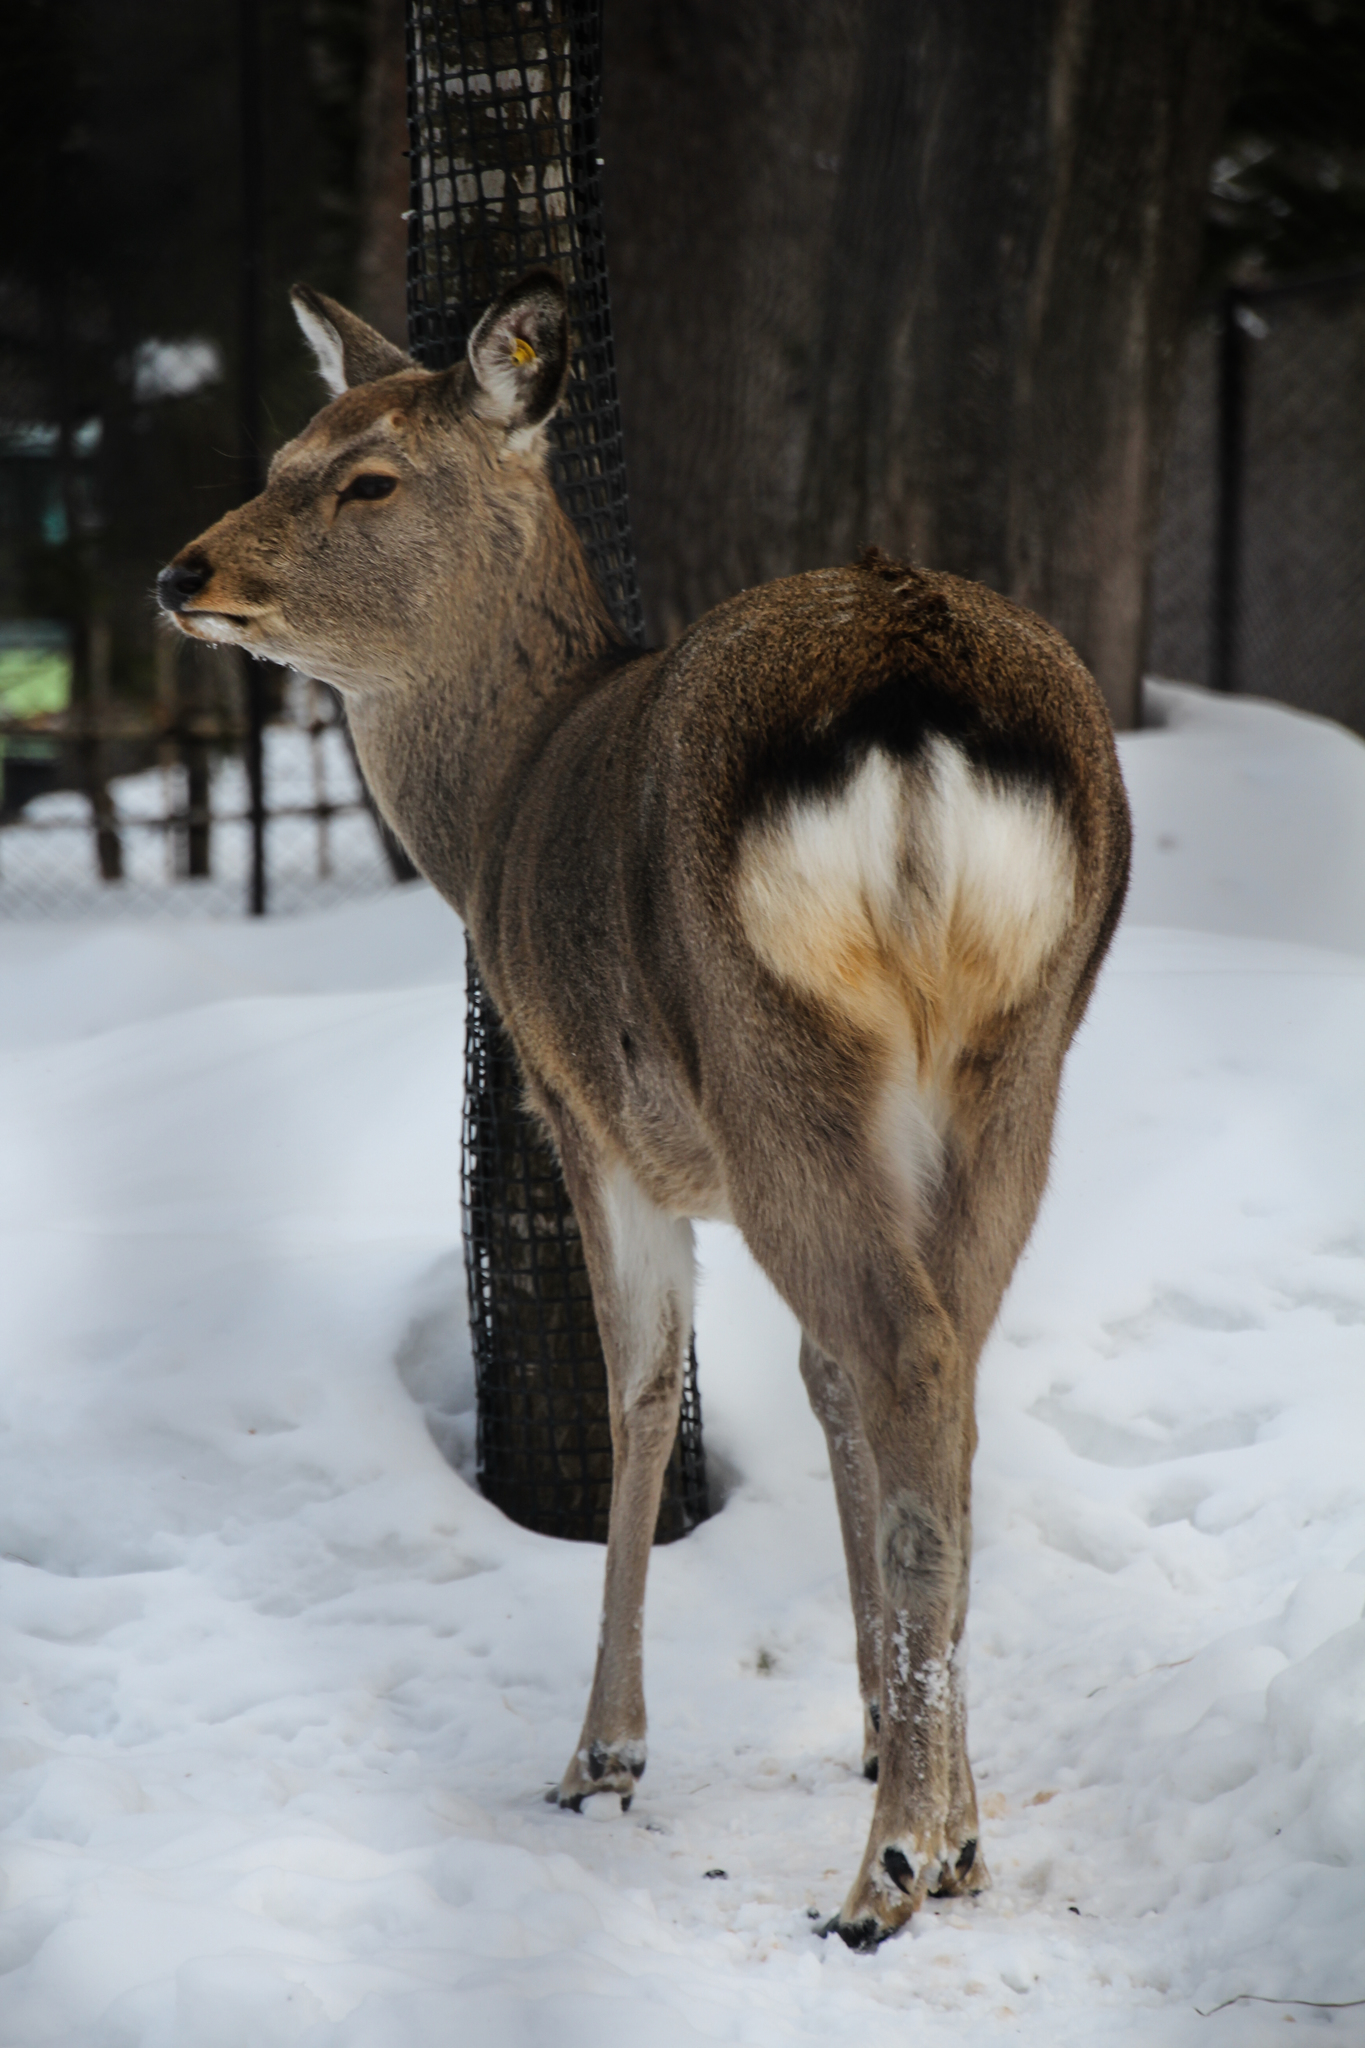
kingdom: Animalia
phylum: Chordata
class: Mammalia
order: Artiodactyla
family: Cervidae
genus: Cervus
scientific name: Cervus nippon
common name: Sika deer
